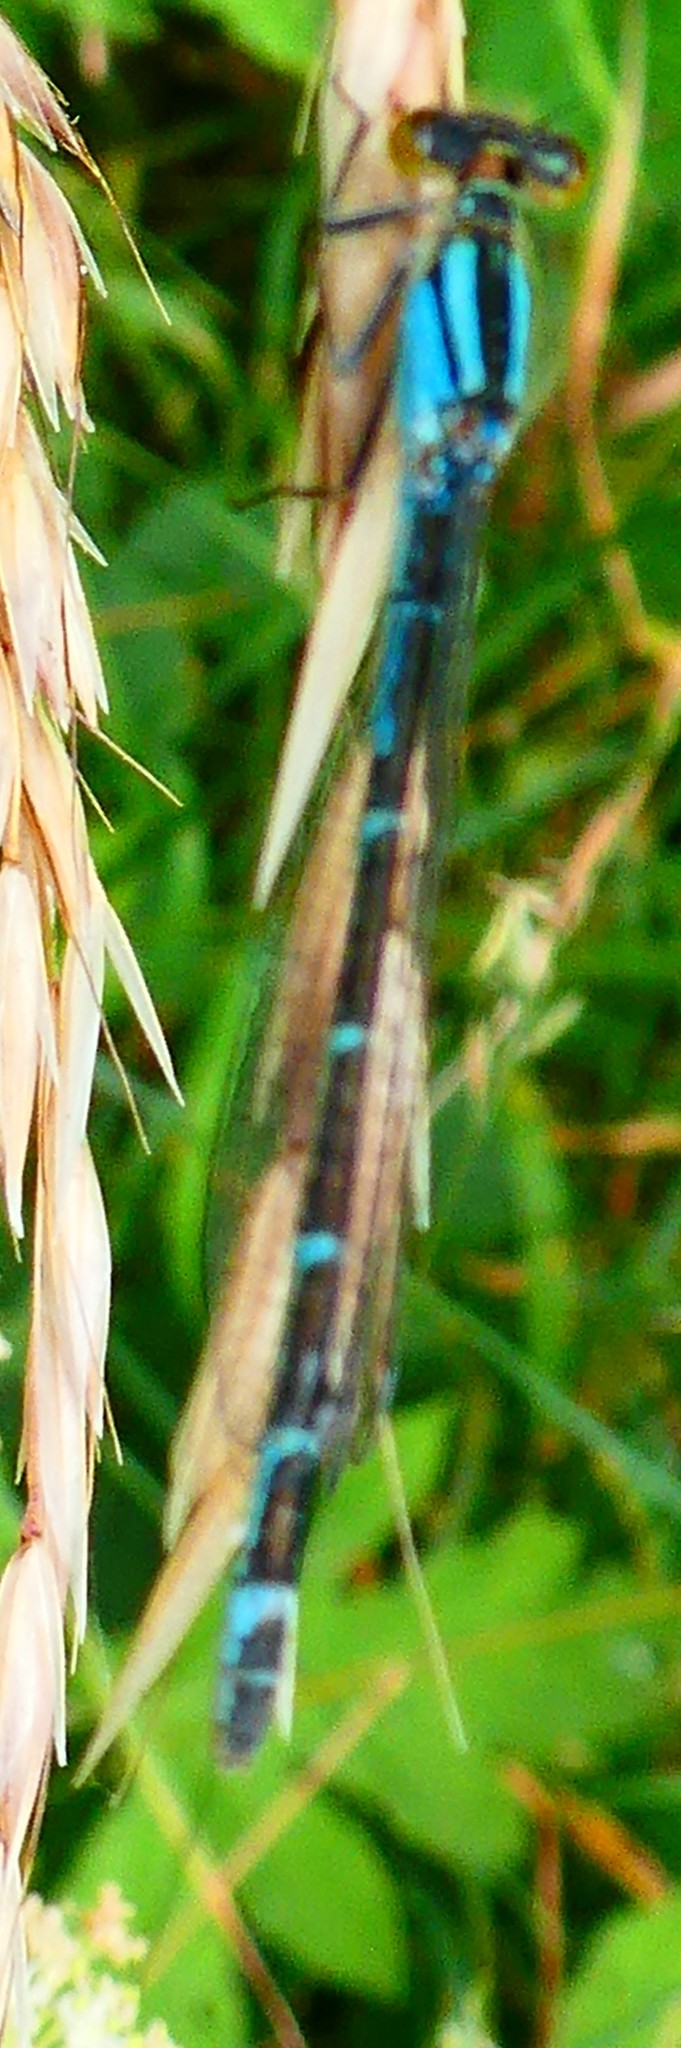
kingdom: Animalia
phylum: Arthropoda
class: Insecta
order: Odonata
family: Coenagrionidae
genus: Enallagma
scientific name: Enallagma cyathigerum
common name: Common blue damselfly
